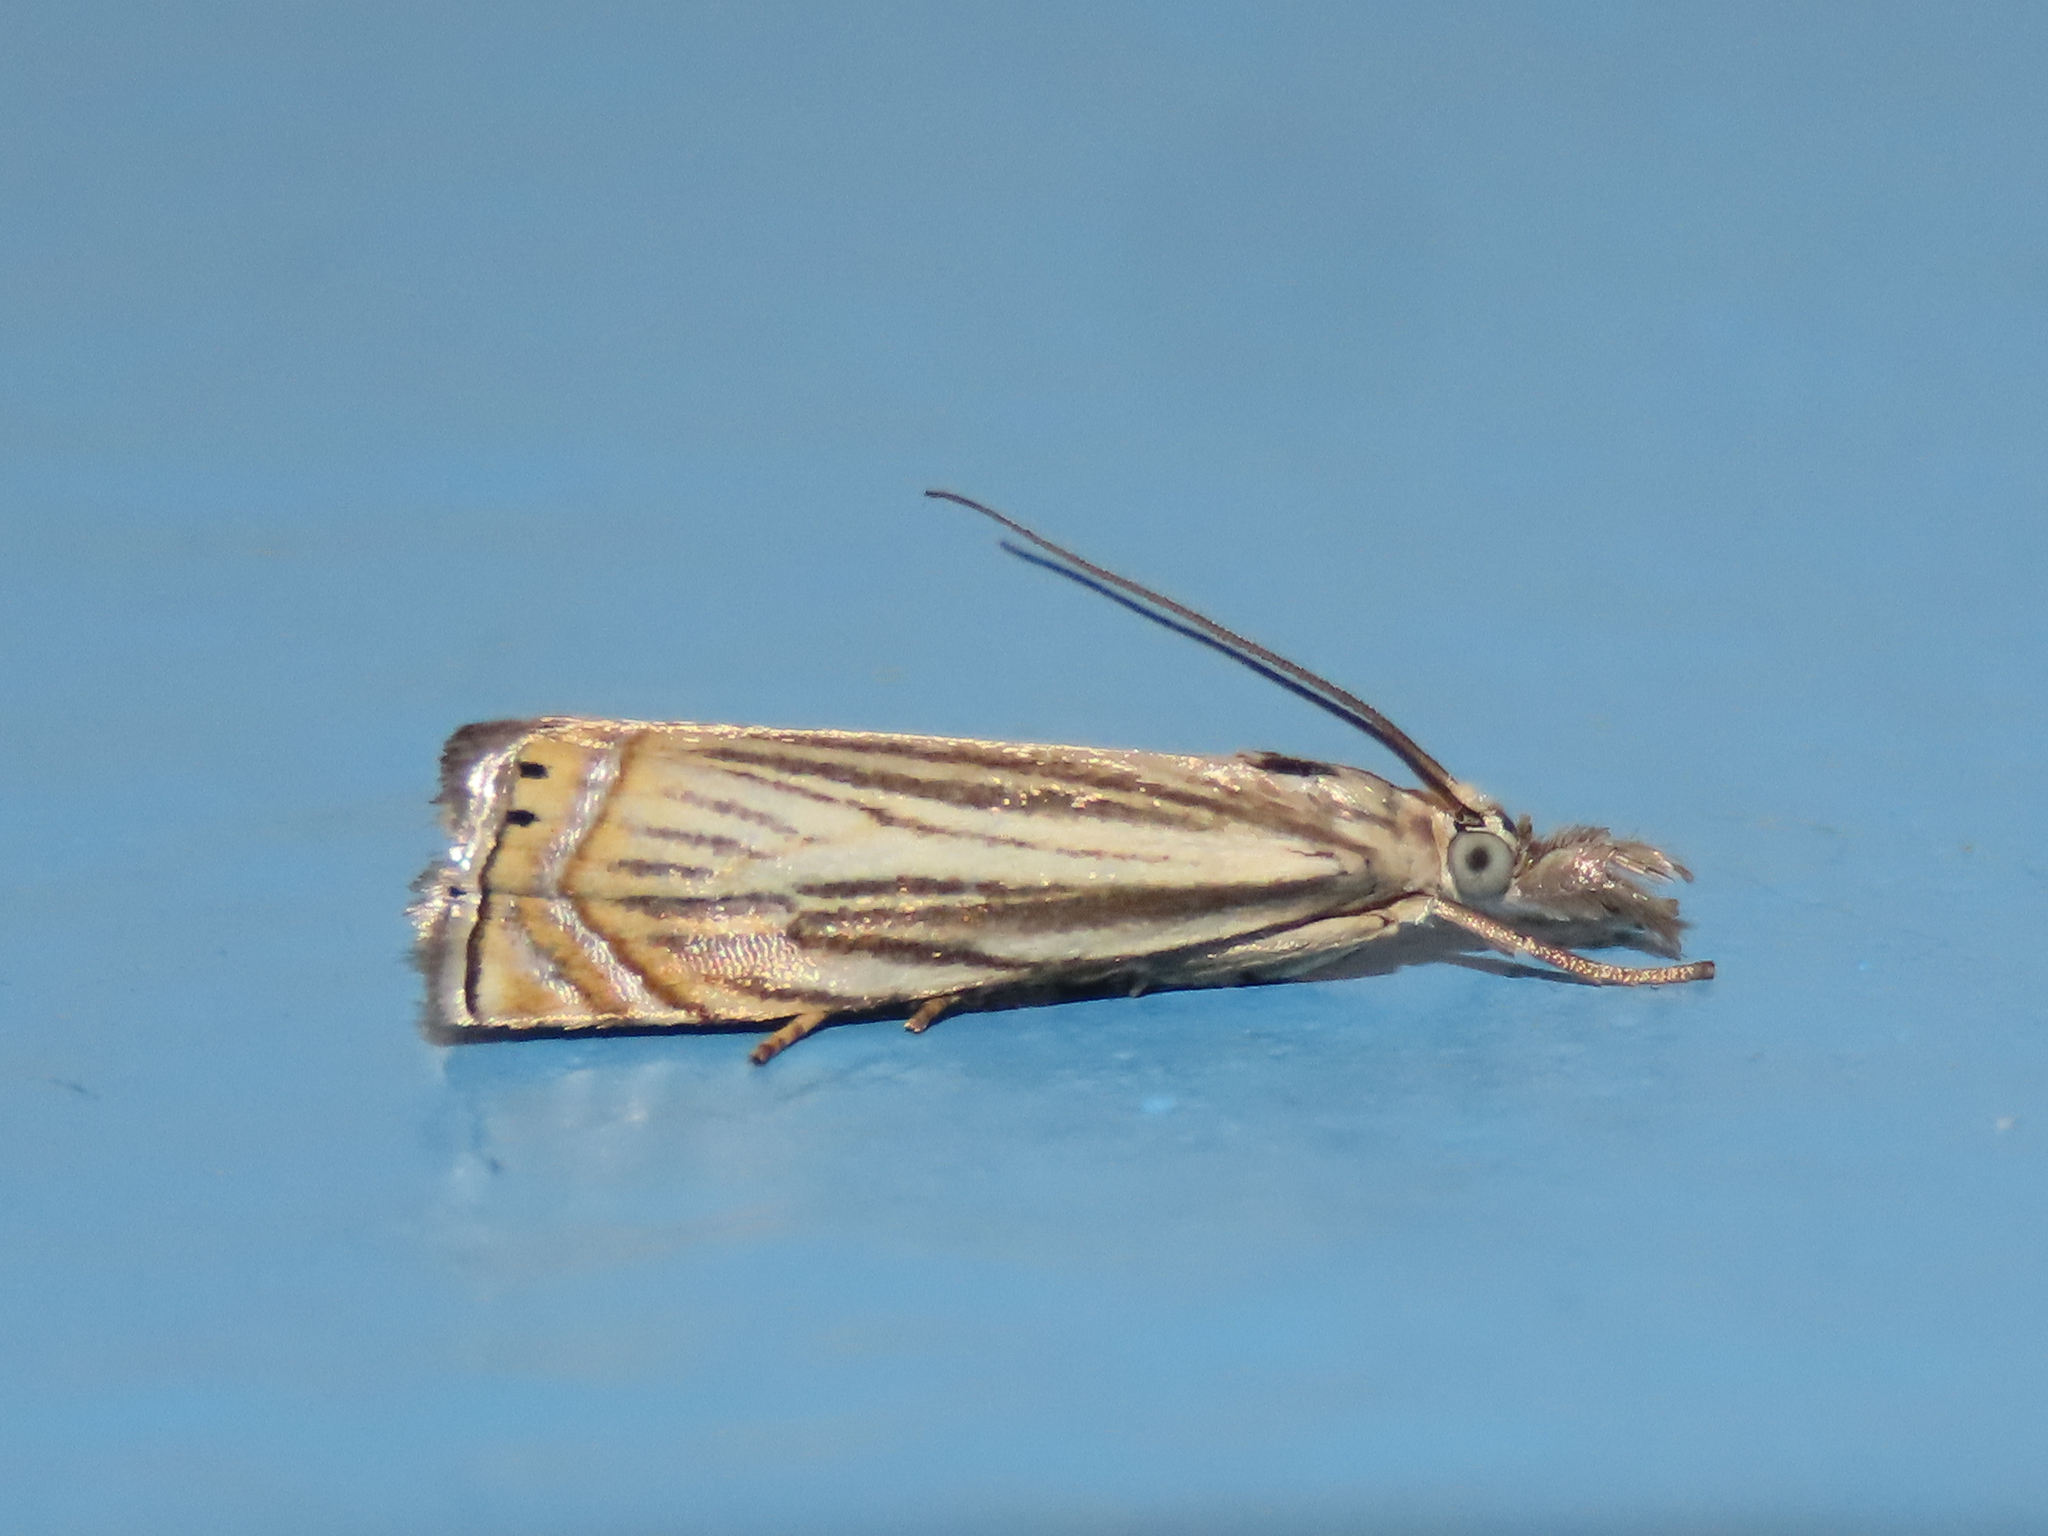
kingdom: Animalia
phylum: Arthropoda
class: Insecta
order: Lepidoptera
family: Crambidae
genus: Chrysoteuchia
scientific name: Chrysoteuchia topiarius
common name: Topiary grass-veneer
